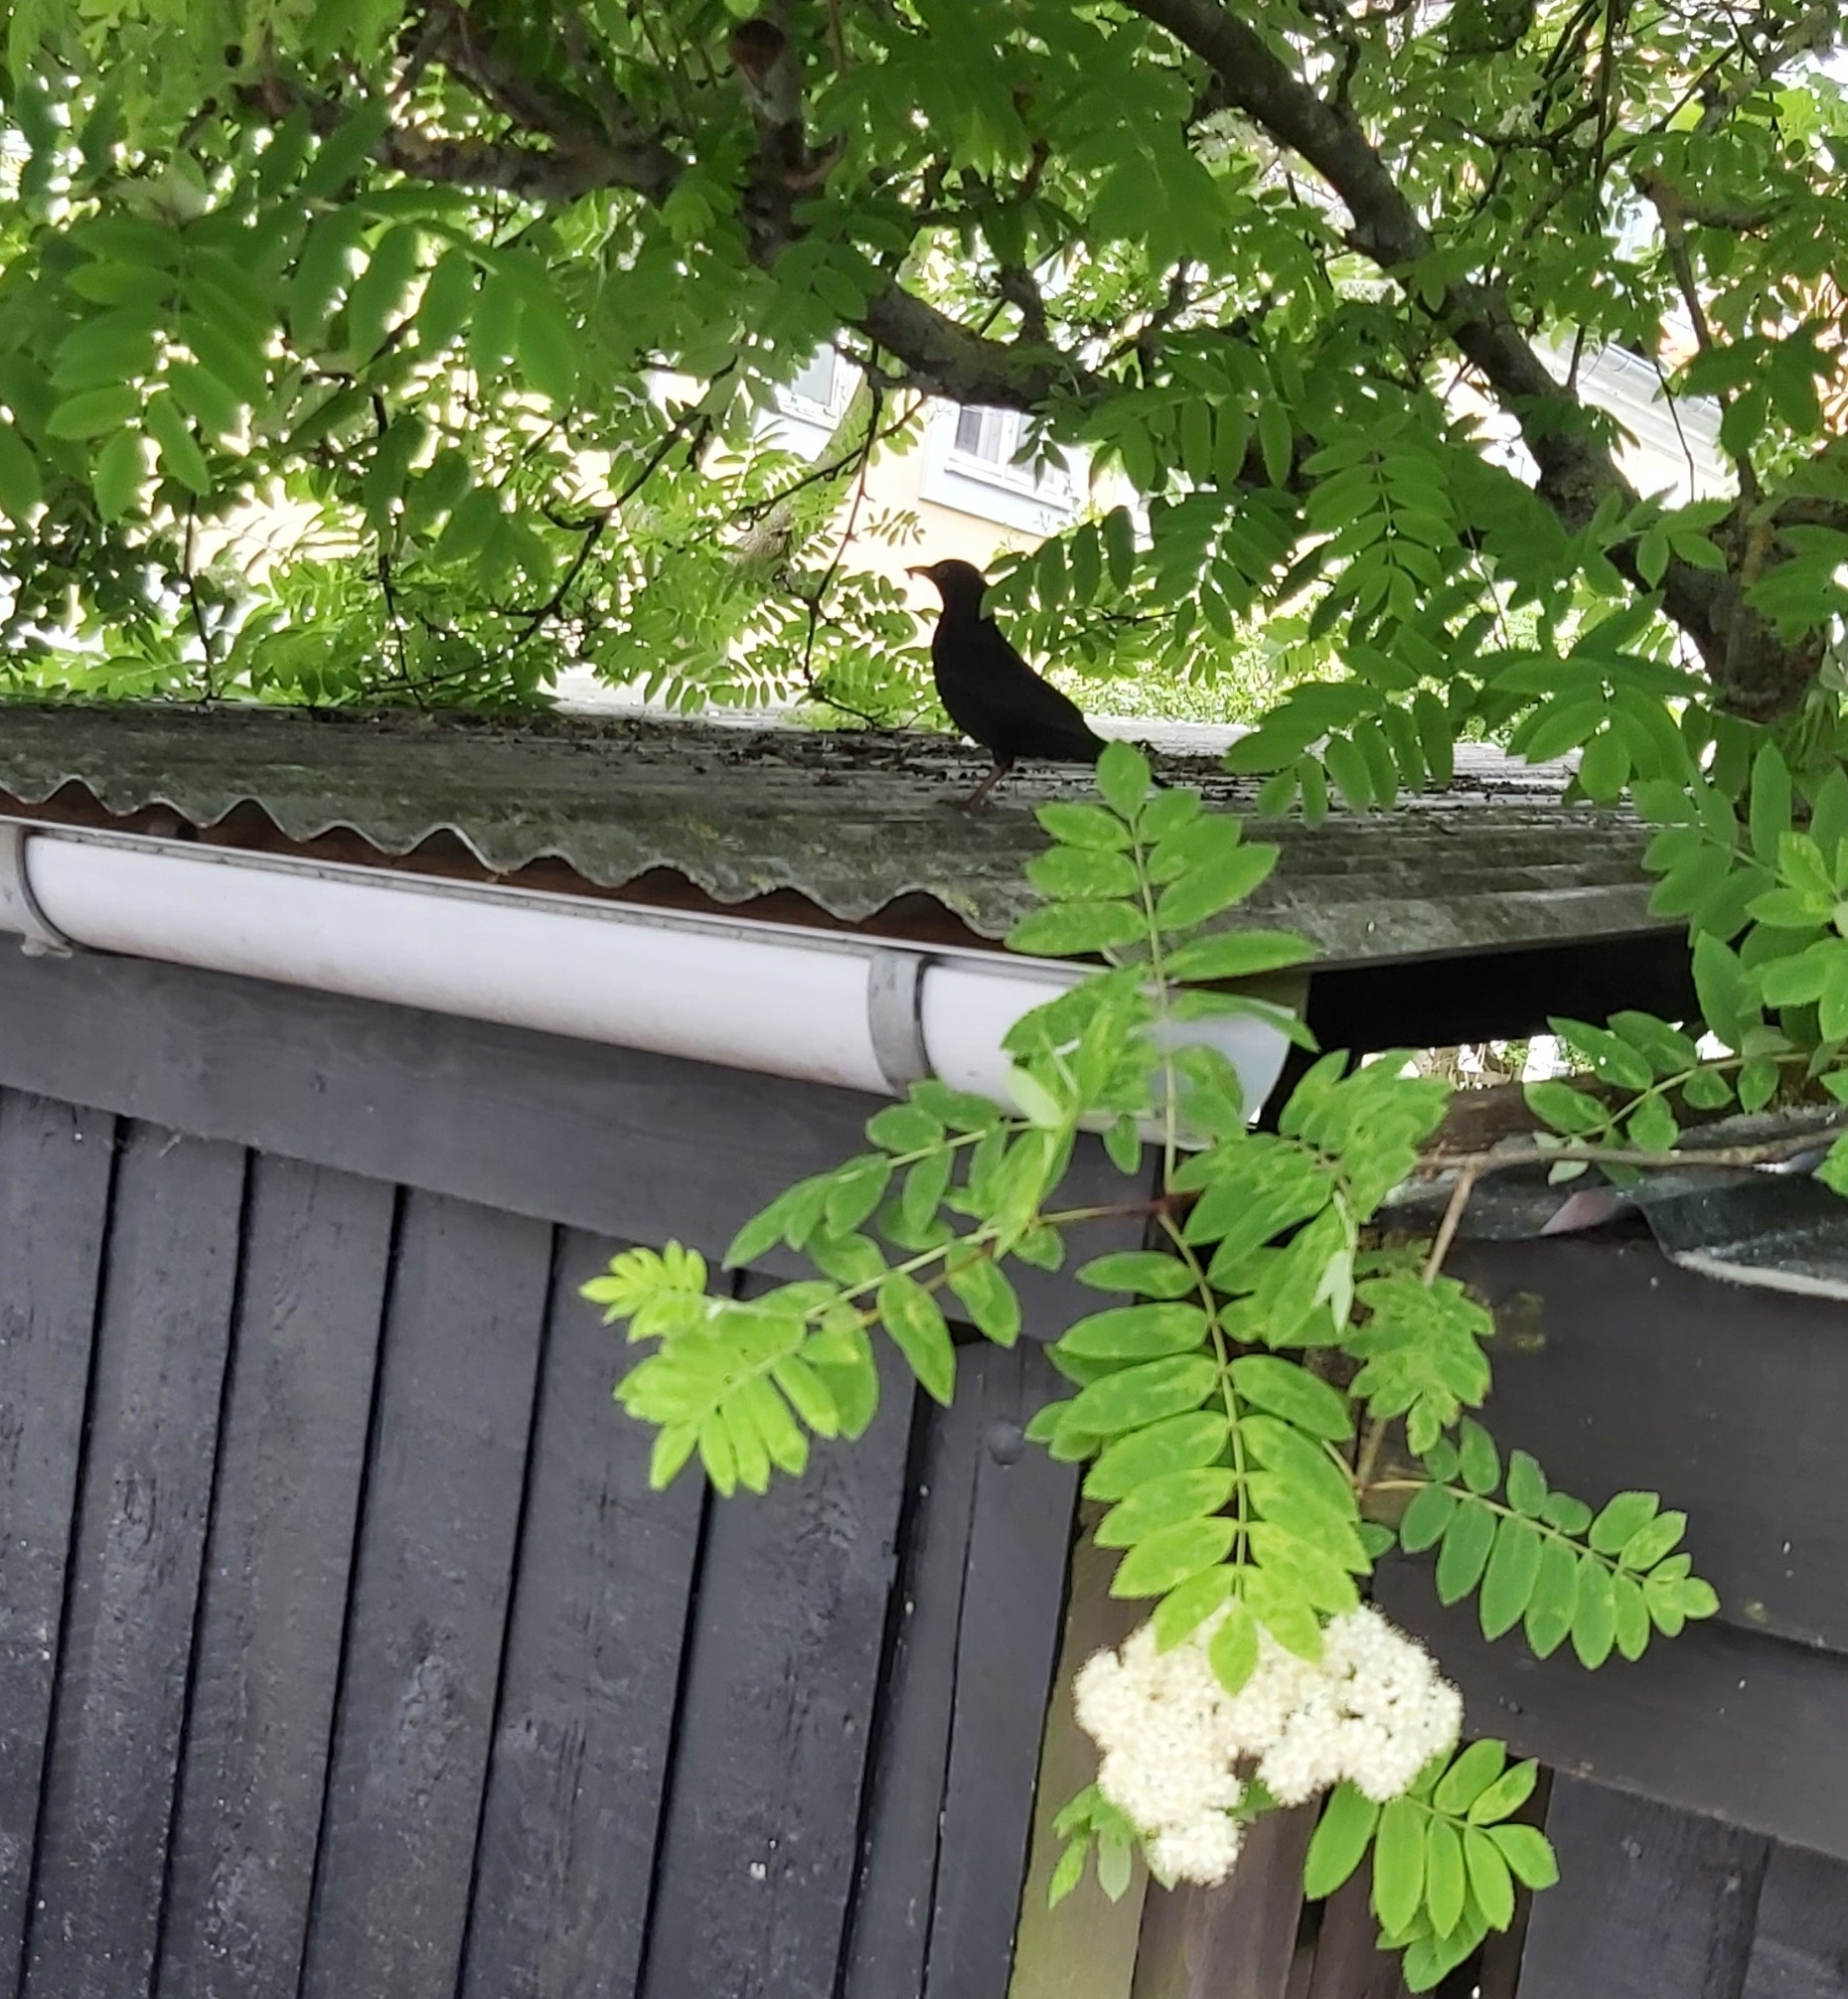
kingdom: Animalia
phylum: Chordata
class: Aves
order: Passeriformes
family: Turdidae
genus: Turdus
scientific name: Turdus merula
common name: Common blackbird
